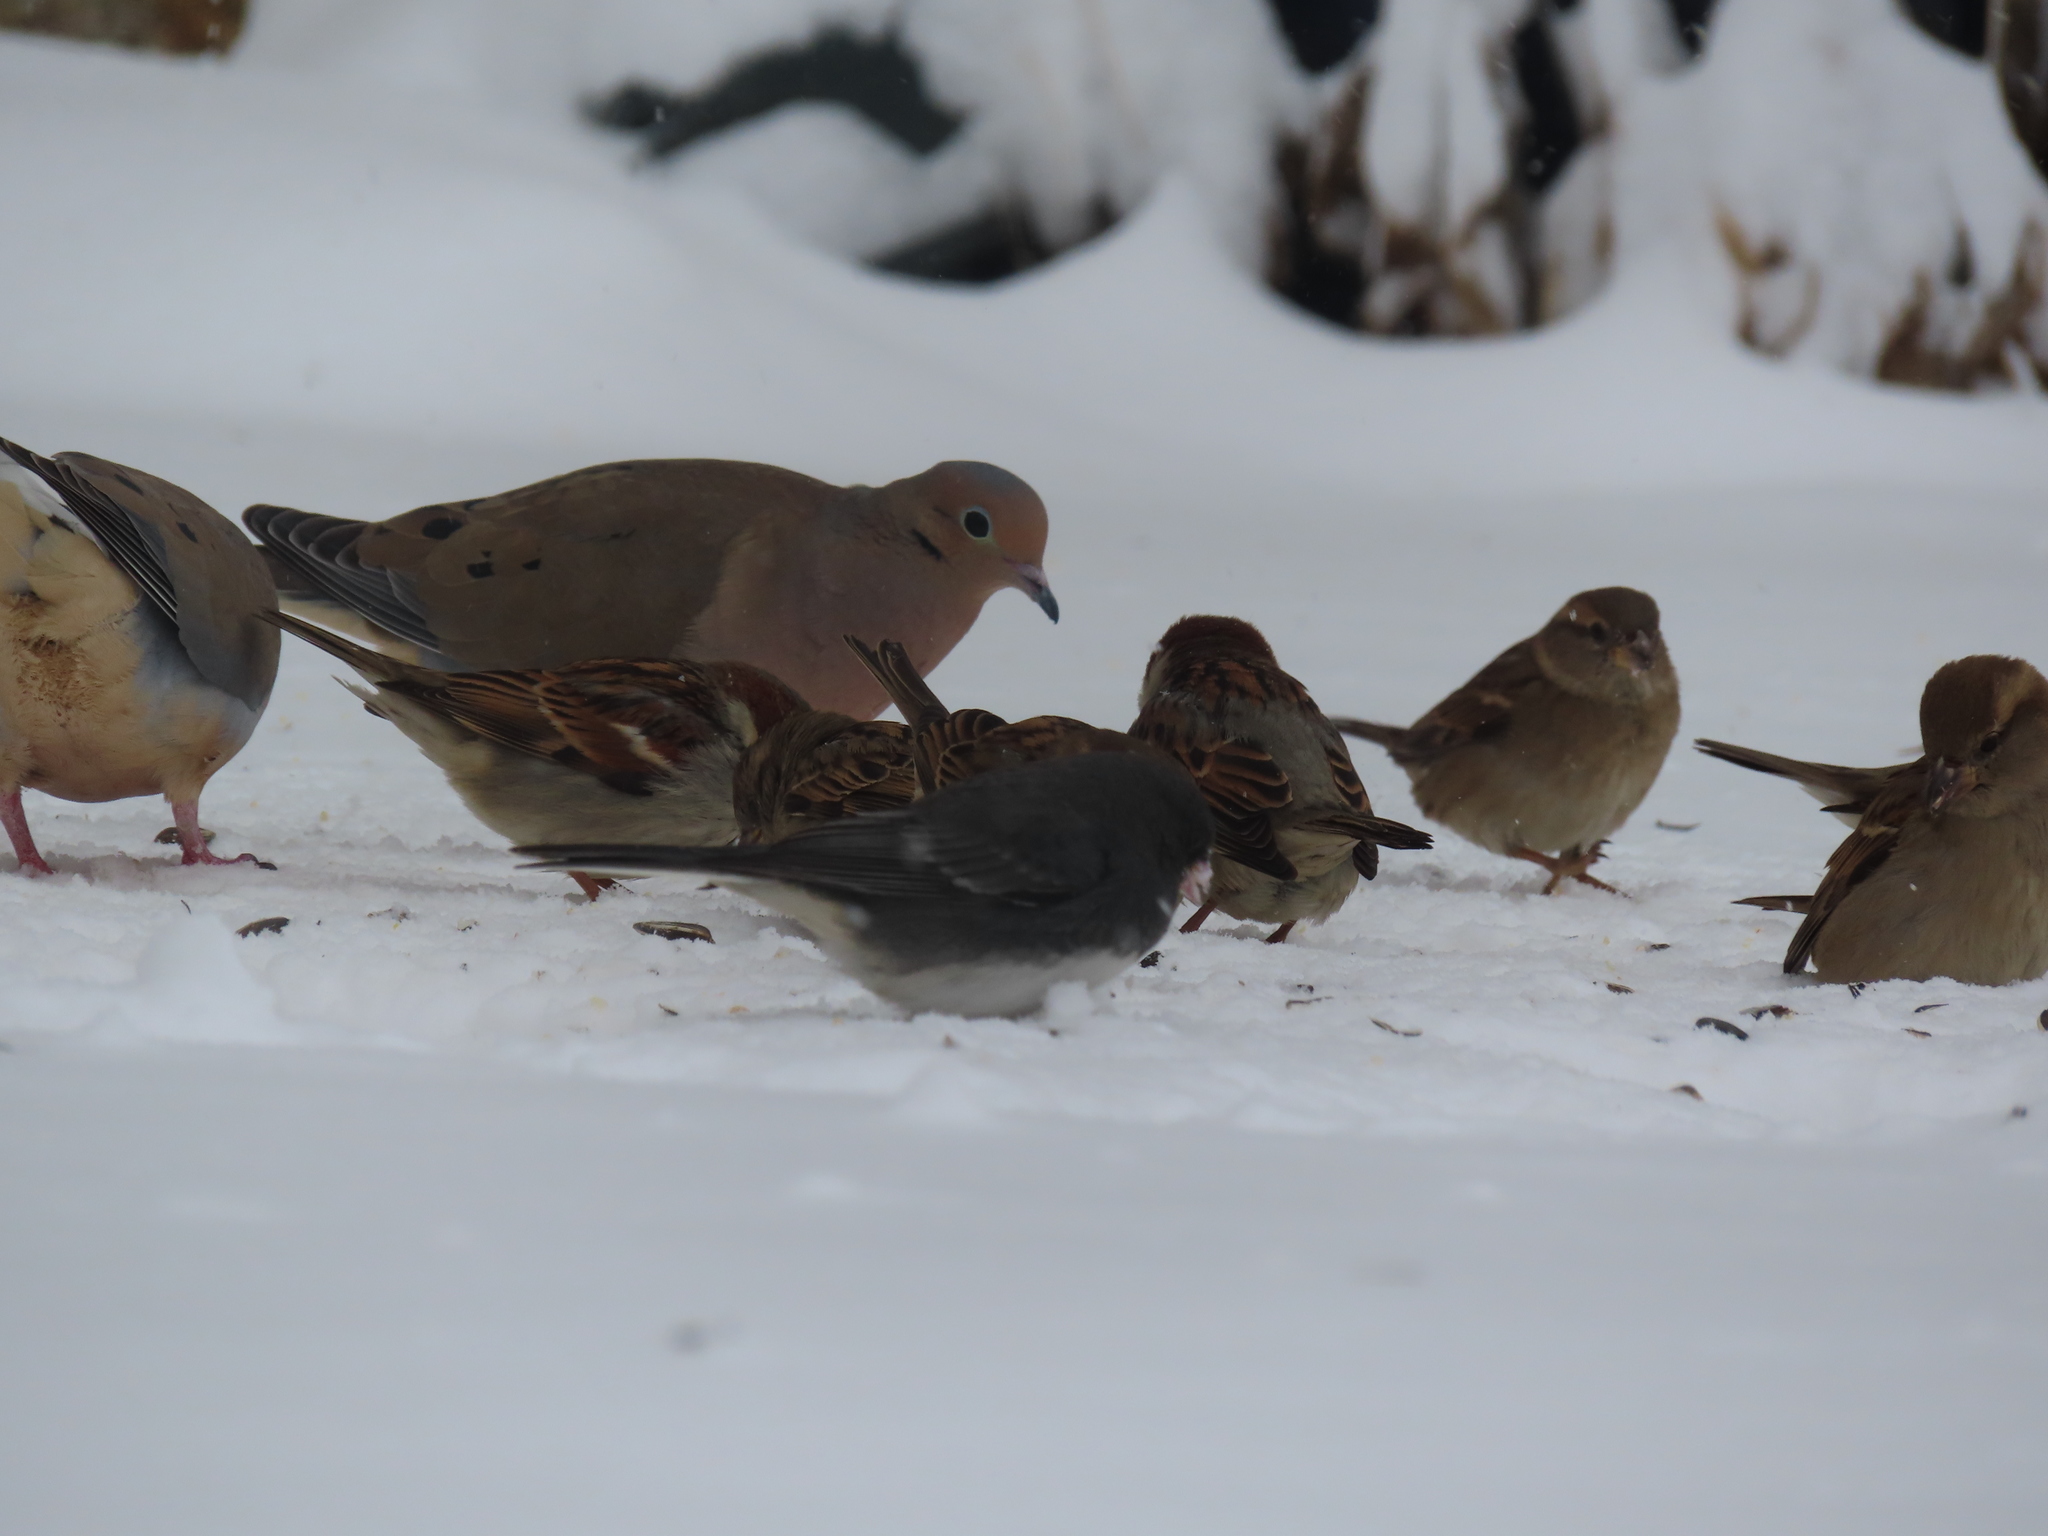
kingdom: Animalia
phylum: Chordata
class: Aves
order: Passeriformes
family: Passeridae
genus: Passer
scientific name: Passer domesticus
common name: House sparrow
